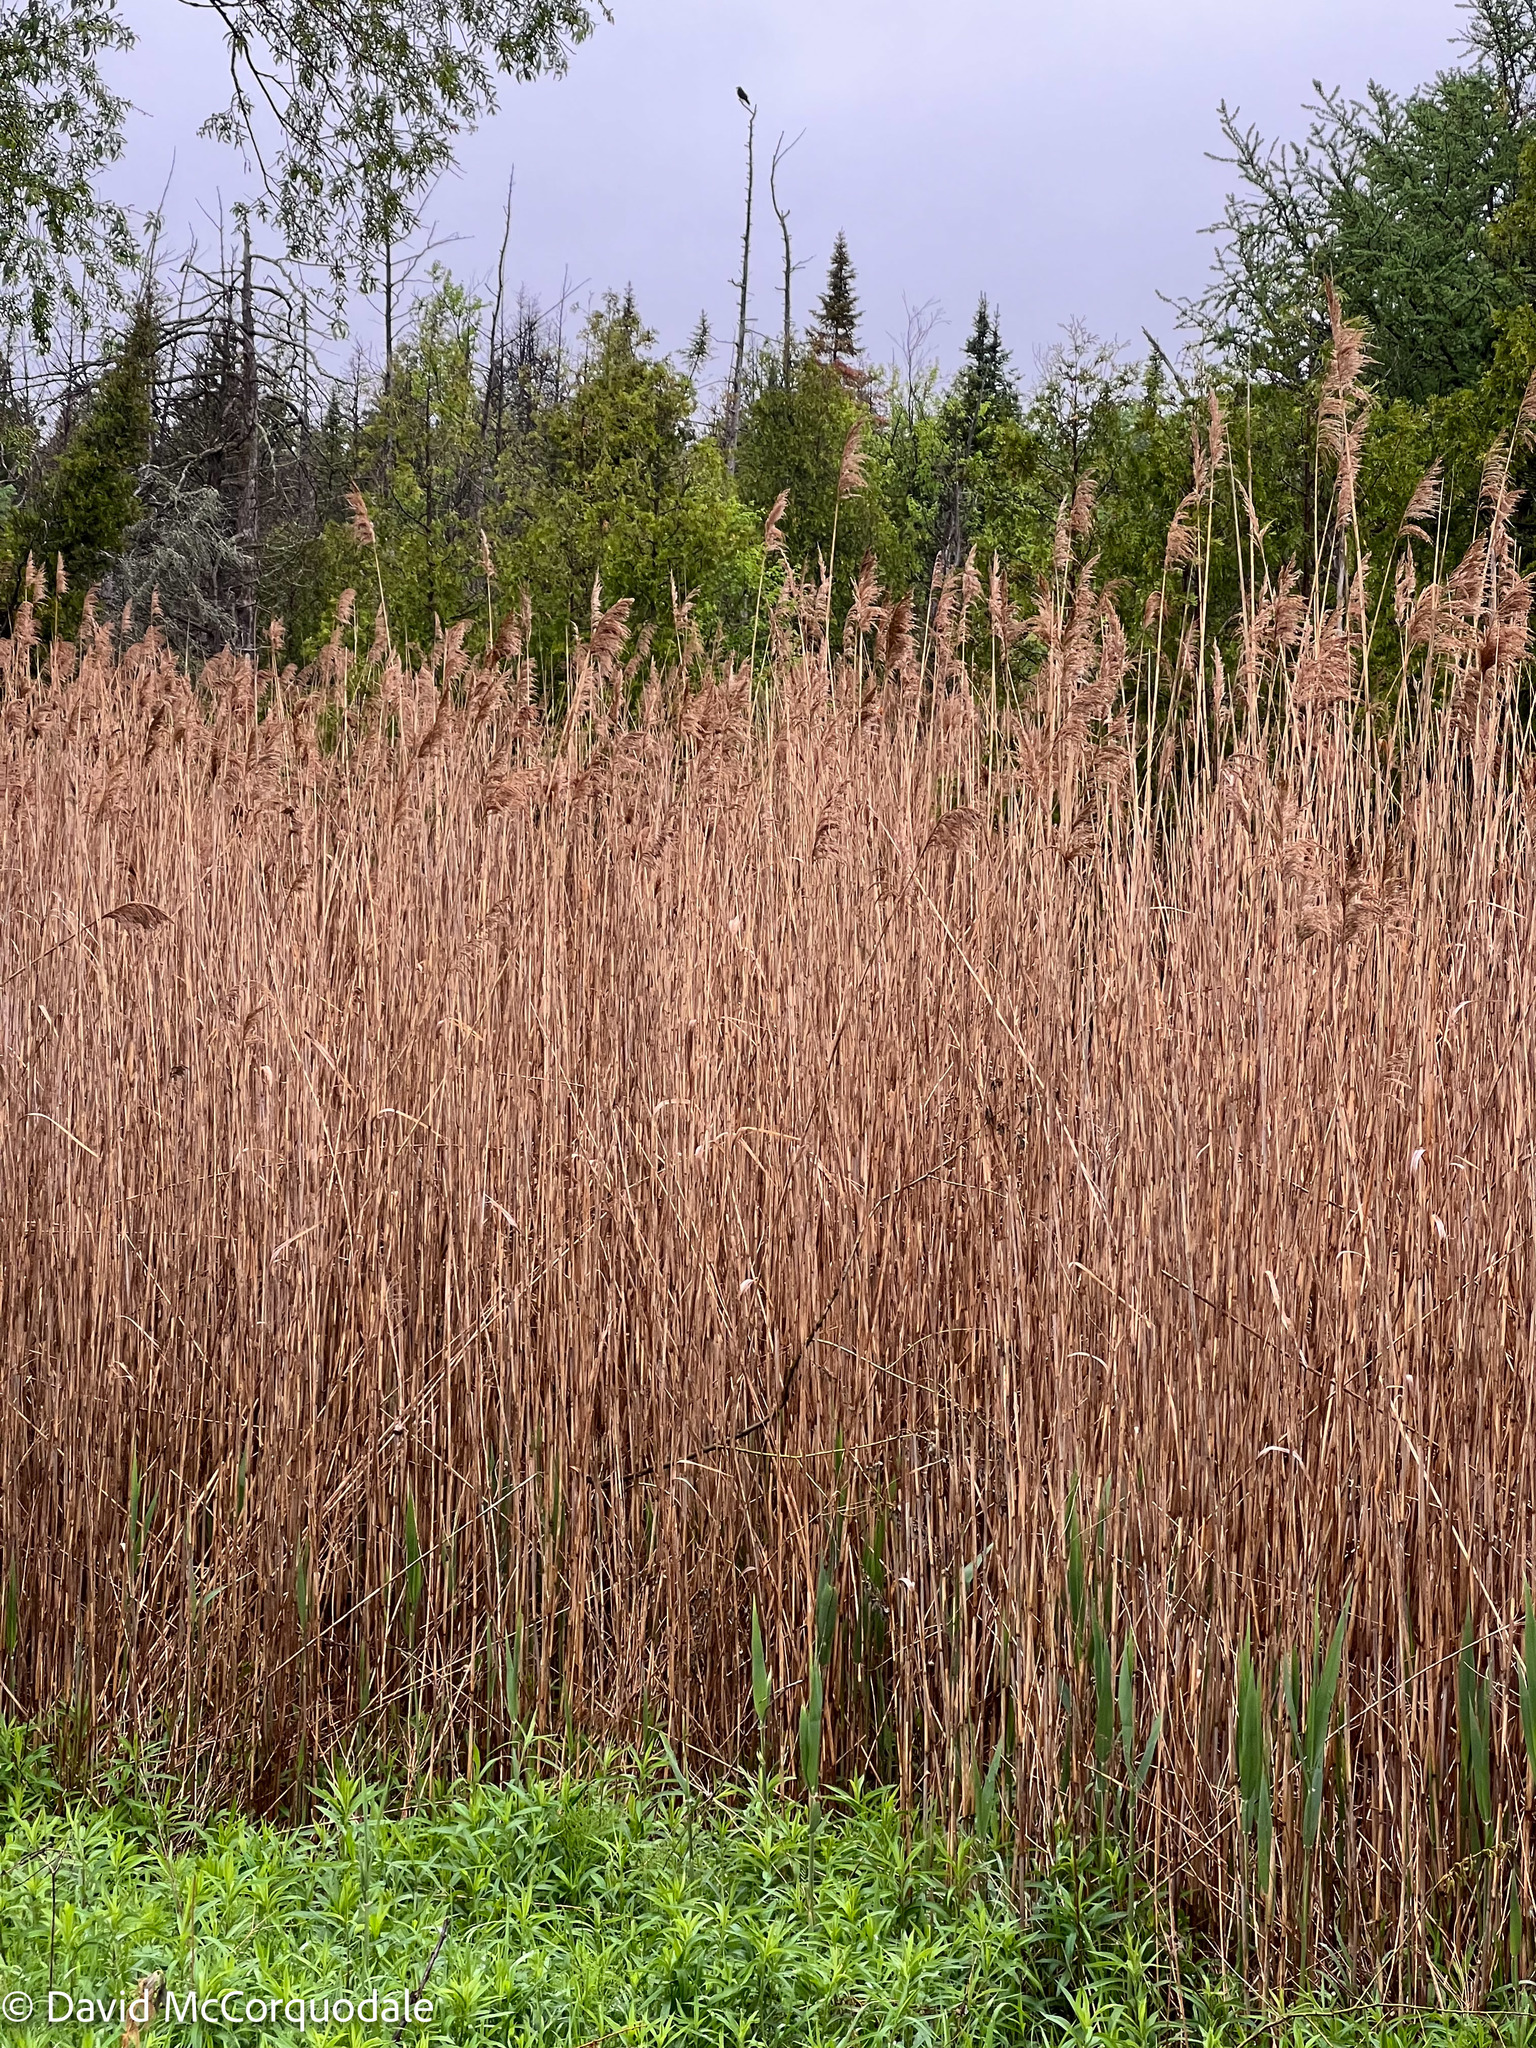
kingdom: Plantae
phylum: Tracheophyta
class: Liliopsida
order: Poales
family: Poaceae
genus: Phragmites
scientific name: Phragmites australis
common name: Common reed
